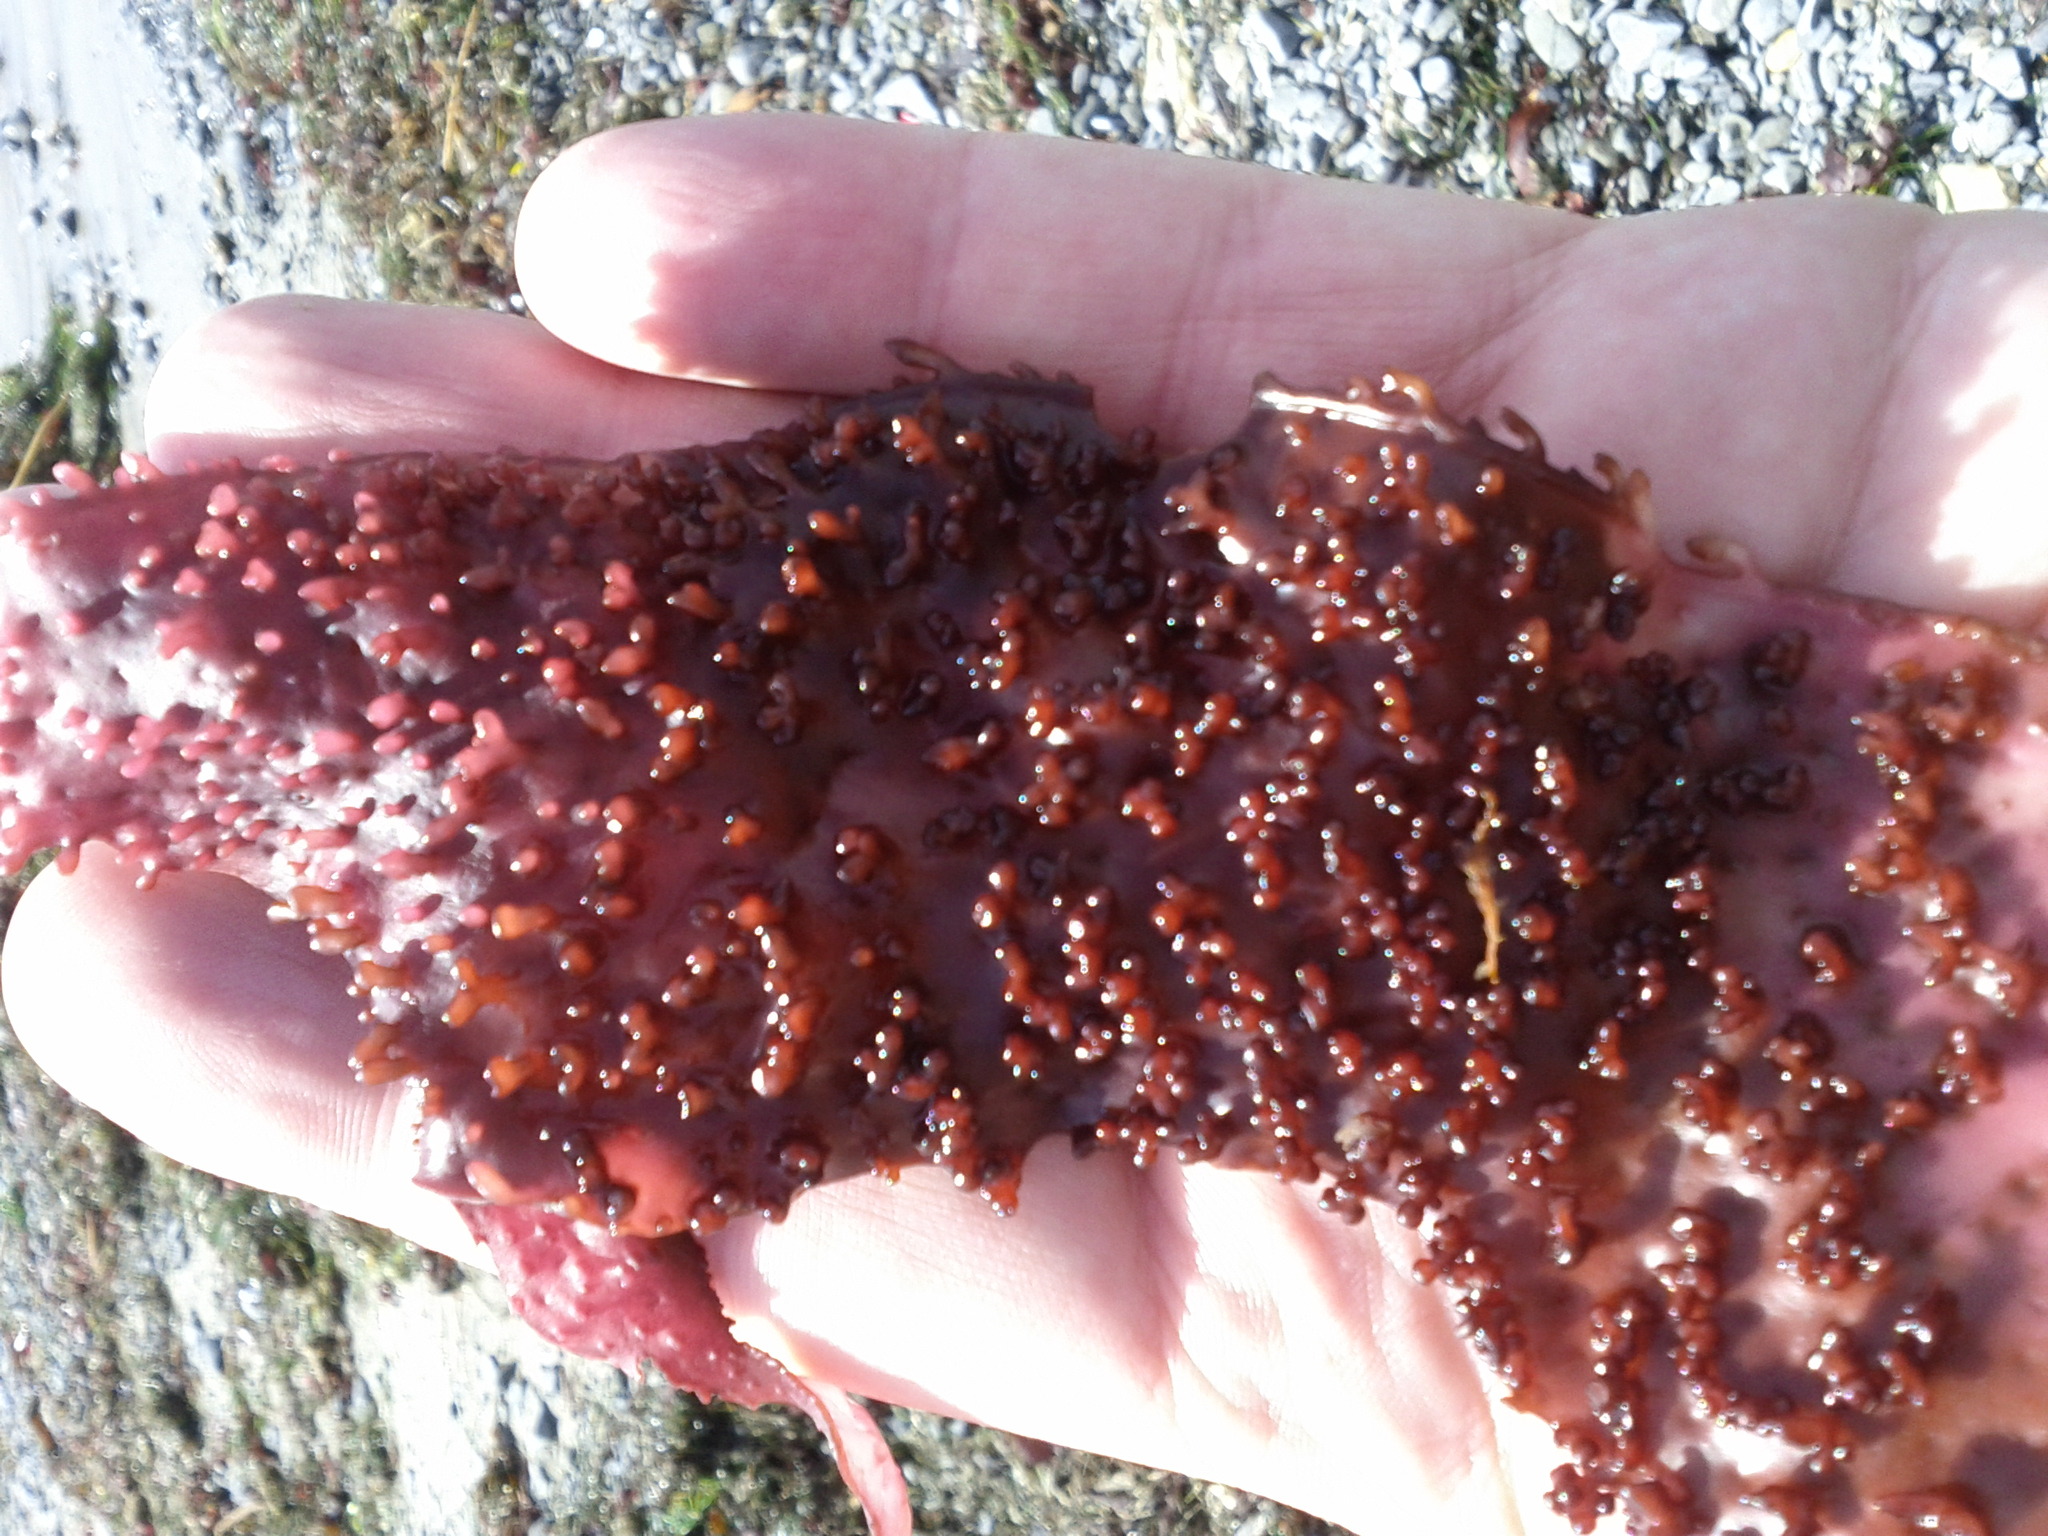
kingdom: Plantae
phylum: Rhodophyta
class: Florideophyceae
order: Gigartinales
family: Gigartinaceae
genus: Chondracanthus
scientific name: Chondracanthus exasperatus
